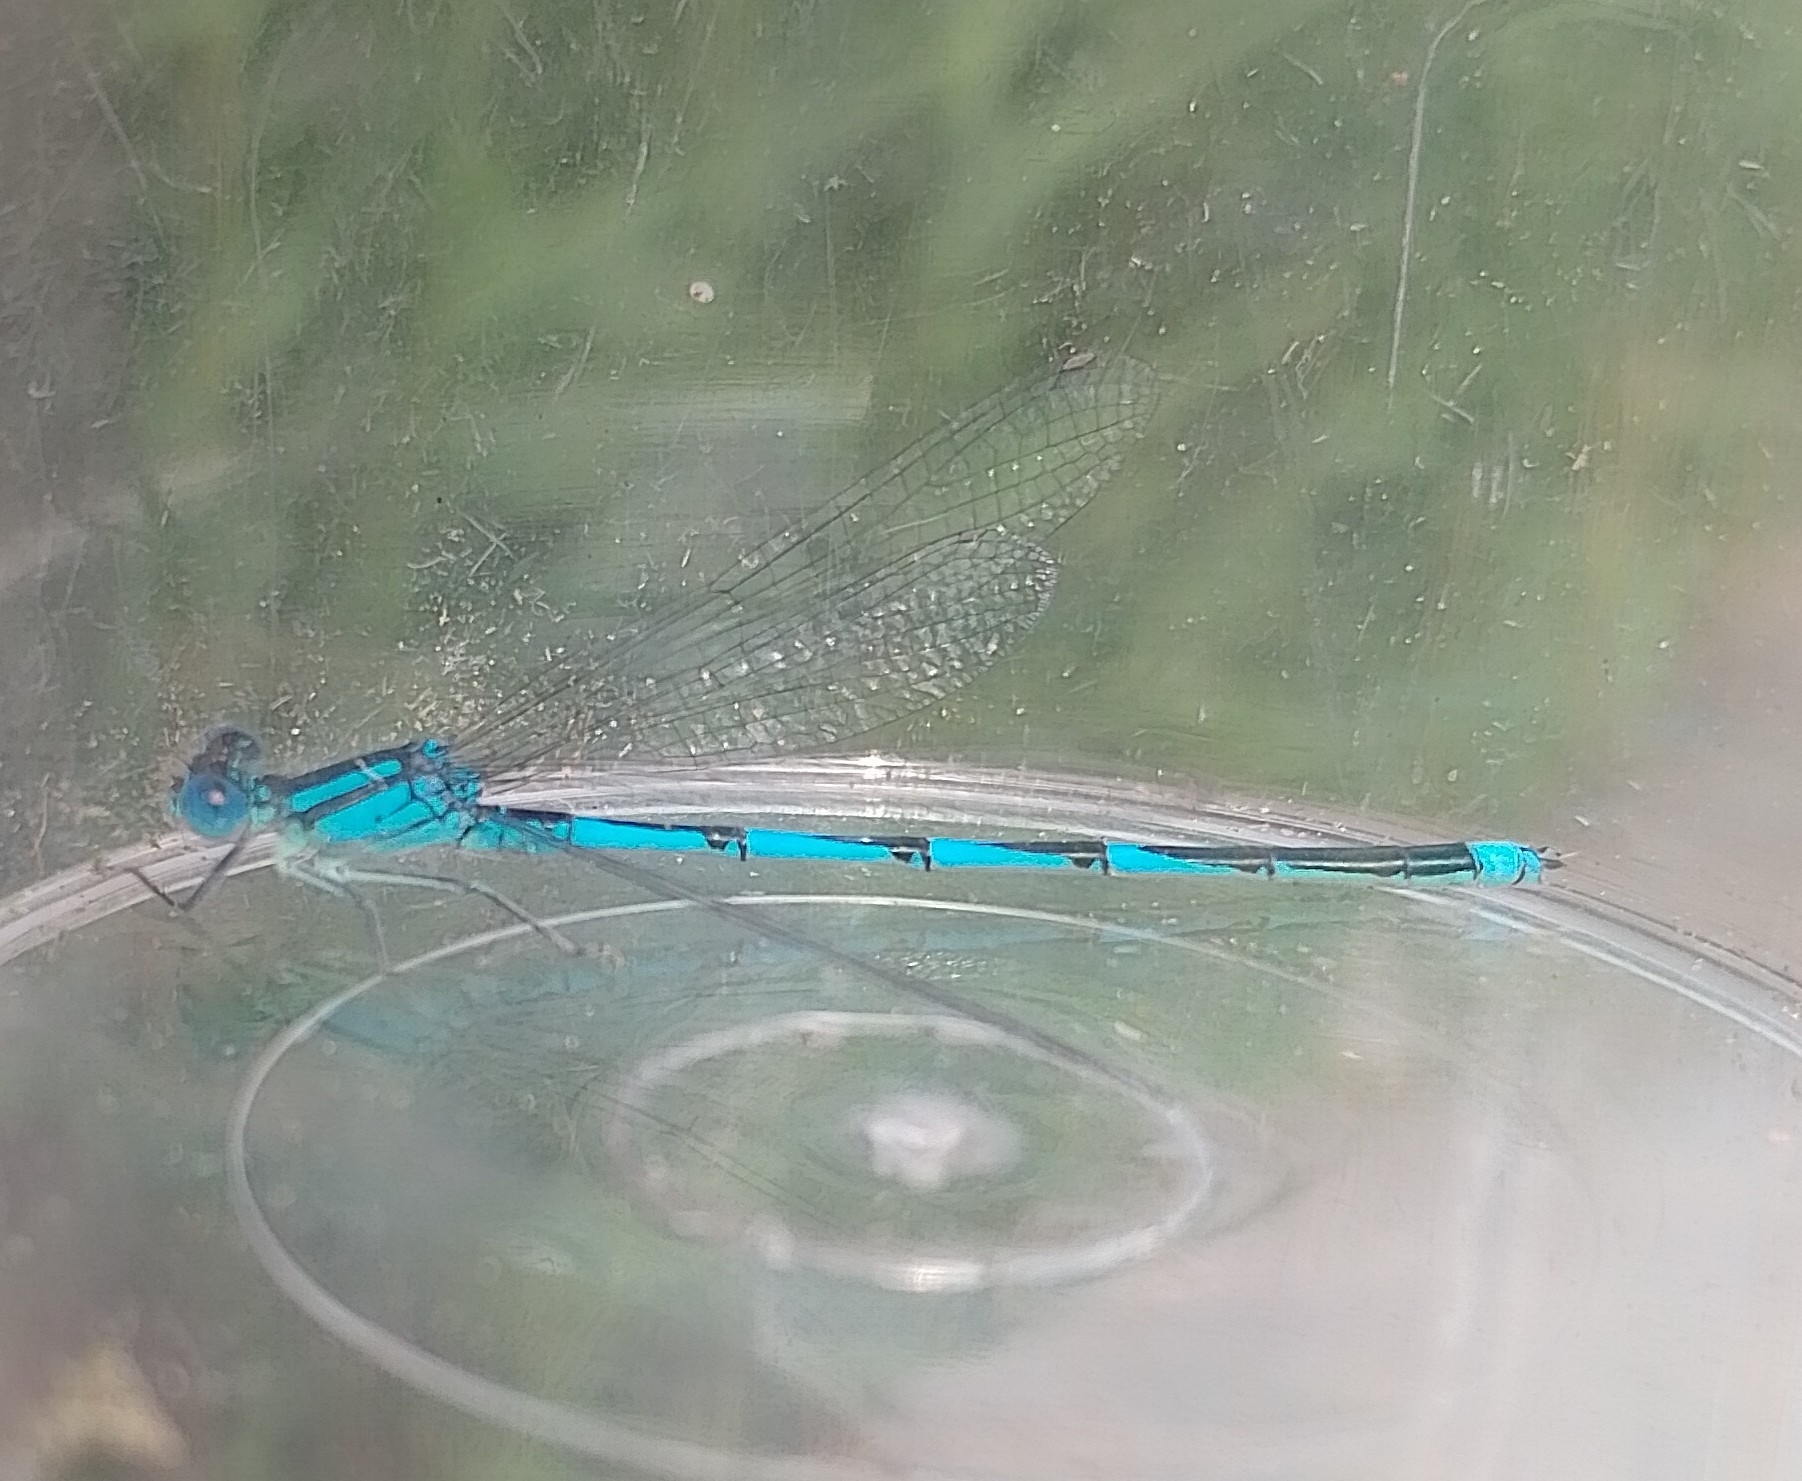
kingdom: Animalia
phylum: Arthropoda
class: Insecta
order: Odonata
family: Coenagrionidae
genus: Erythromma
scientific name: Erythromma lindenii
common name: Blue-eye
